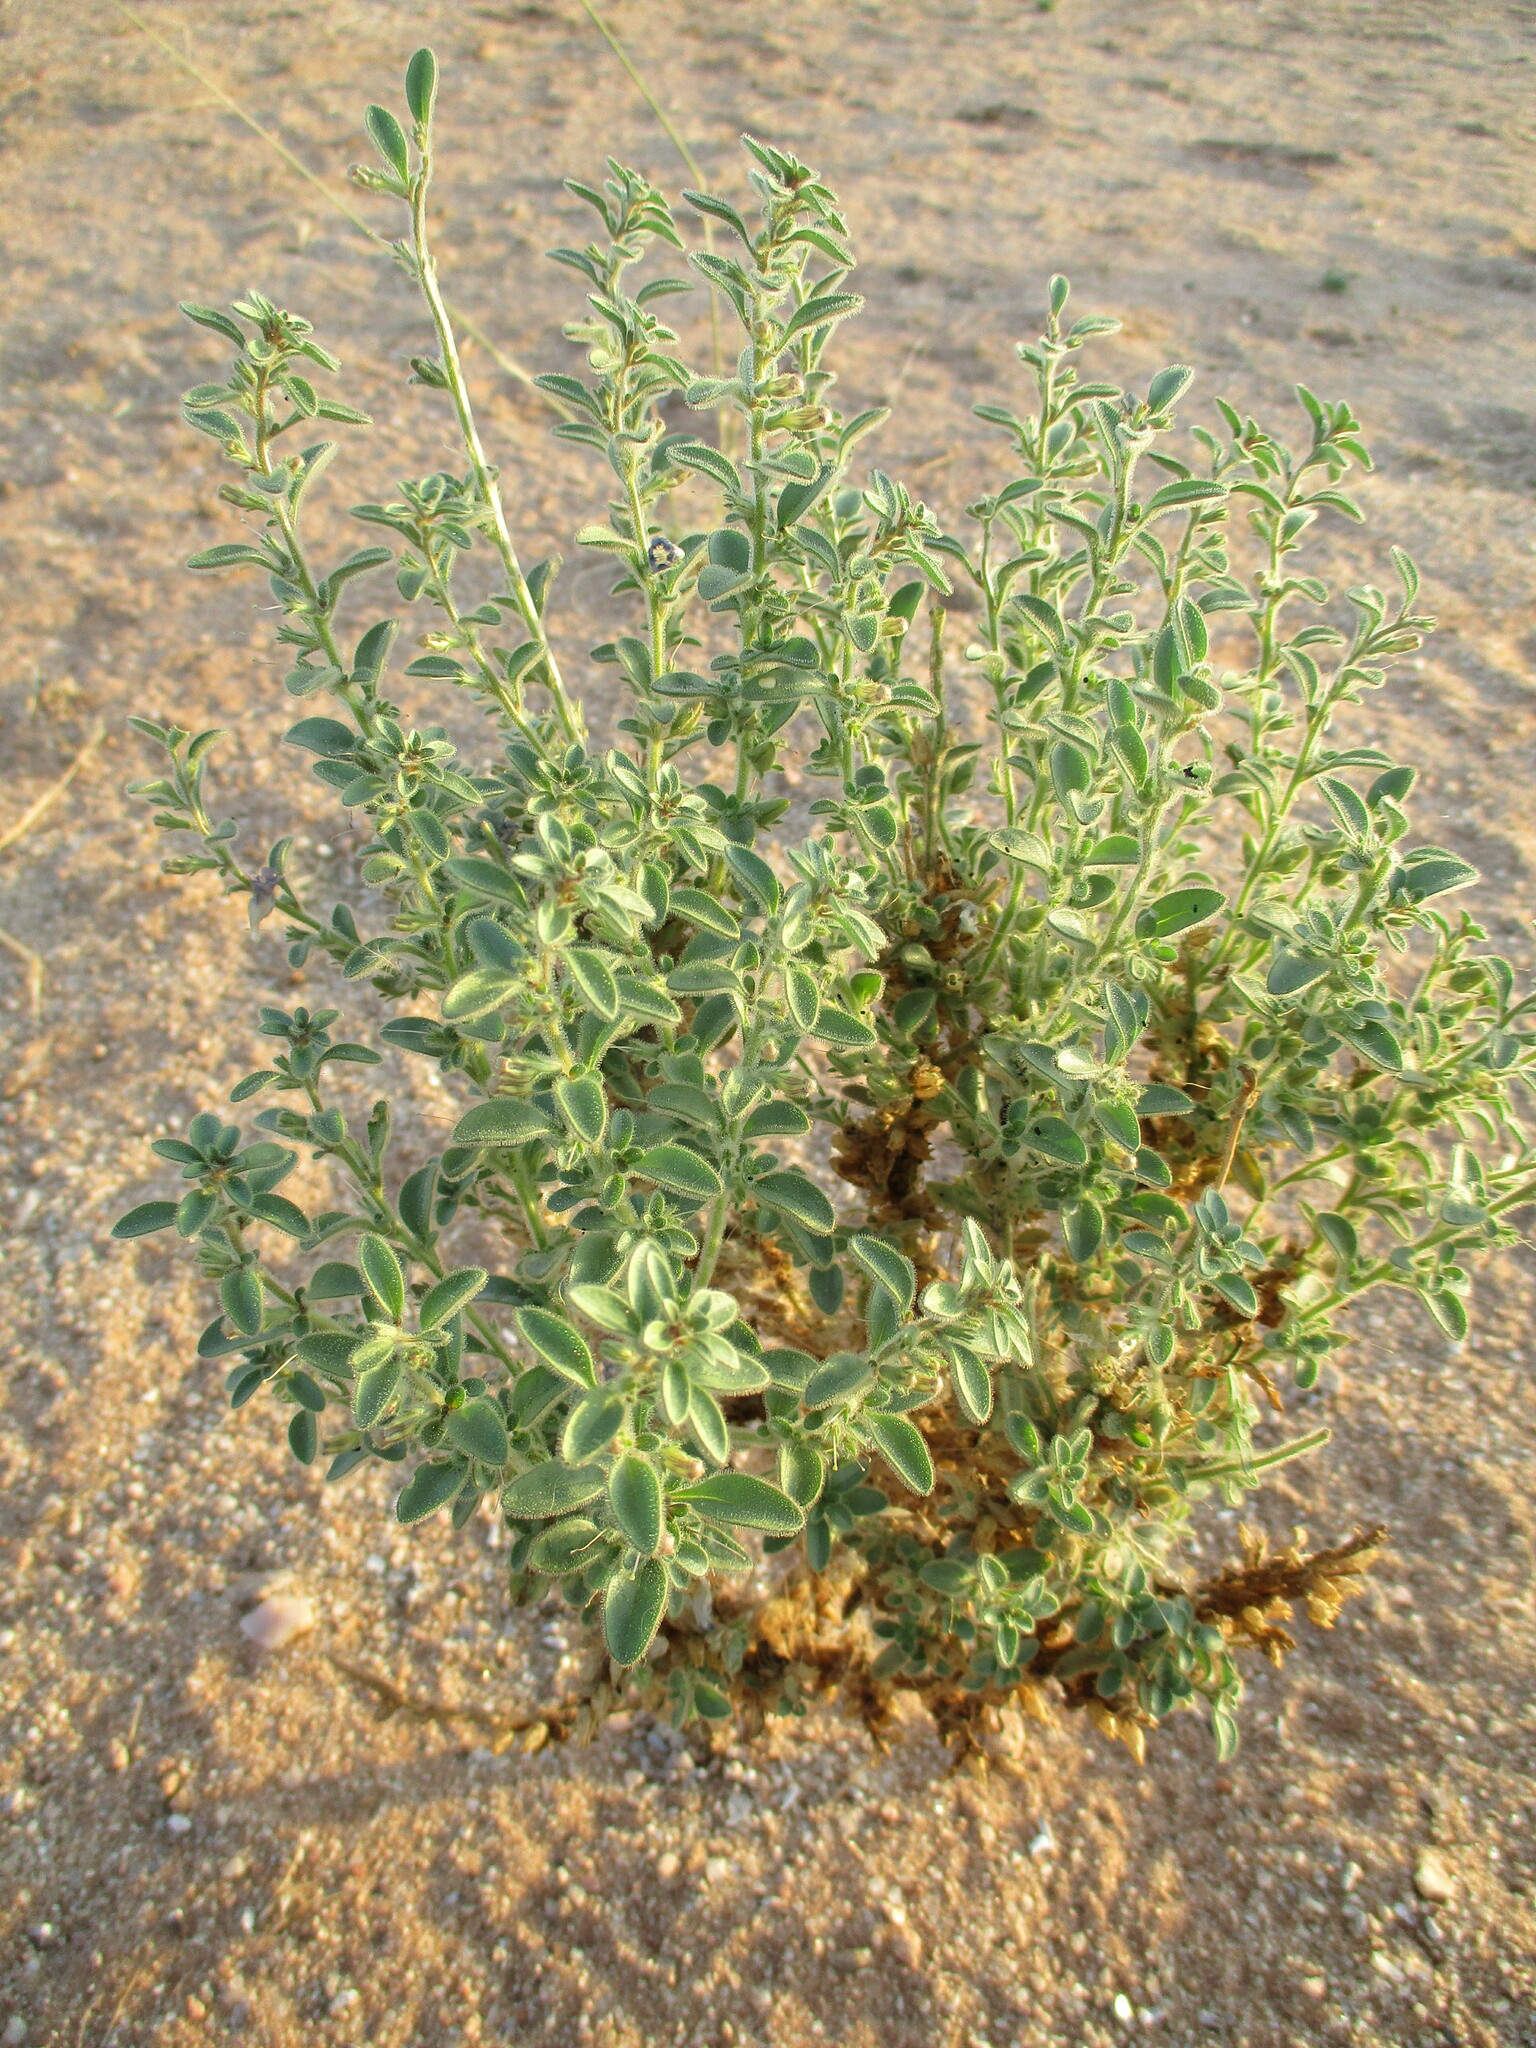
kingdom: Plantae
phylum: Tracheophyta
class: Magnoliopsida
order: Lamiales
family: Scrophulariaceae
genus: Anticharis
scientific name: Anticharis scoparia
